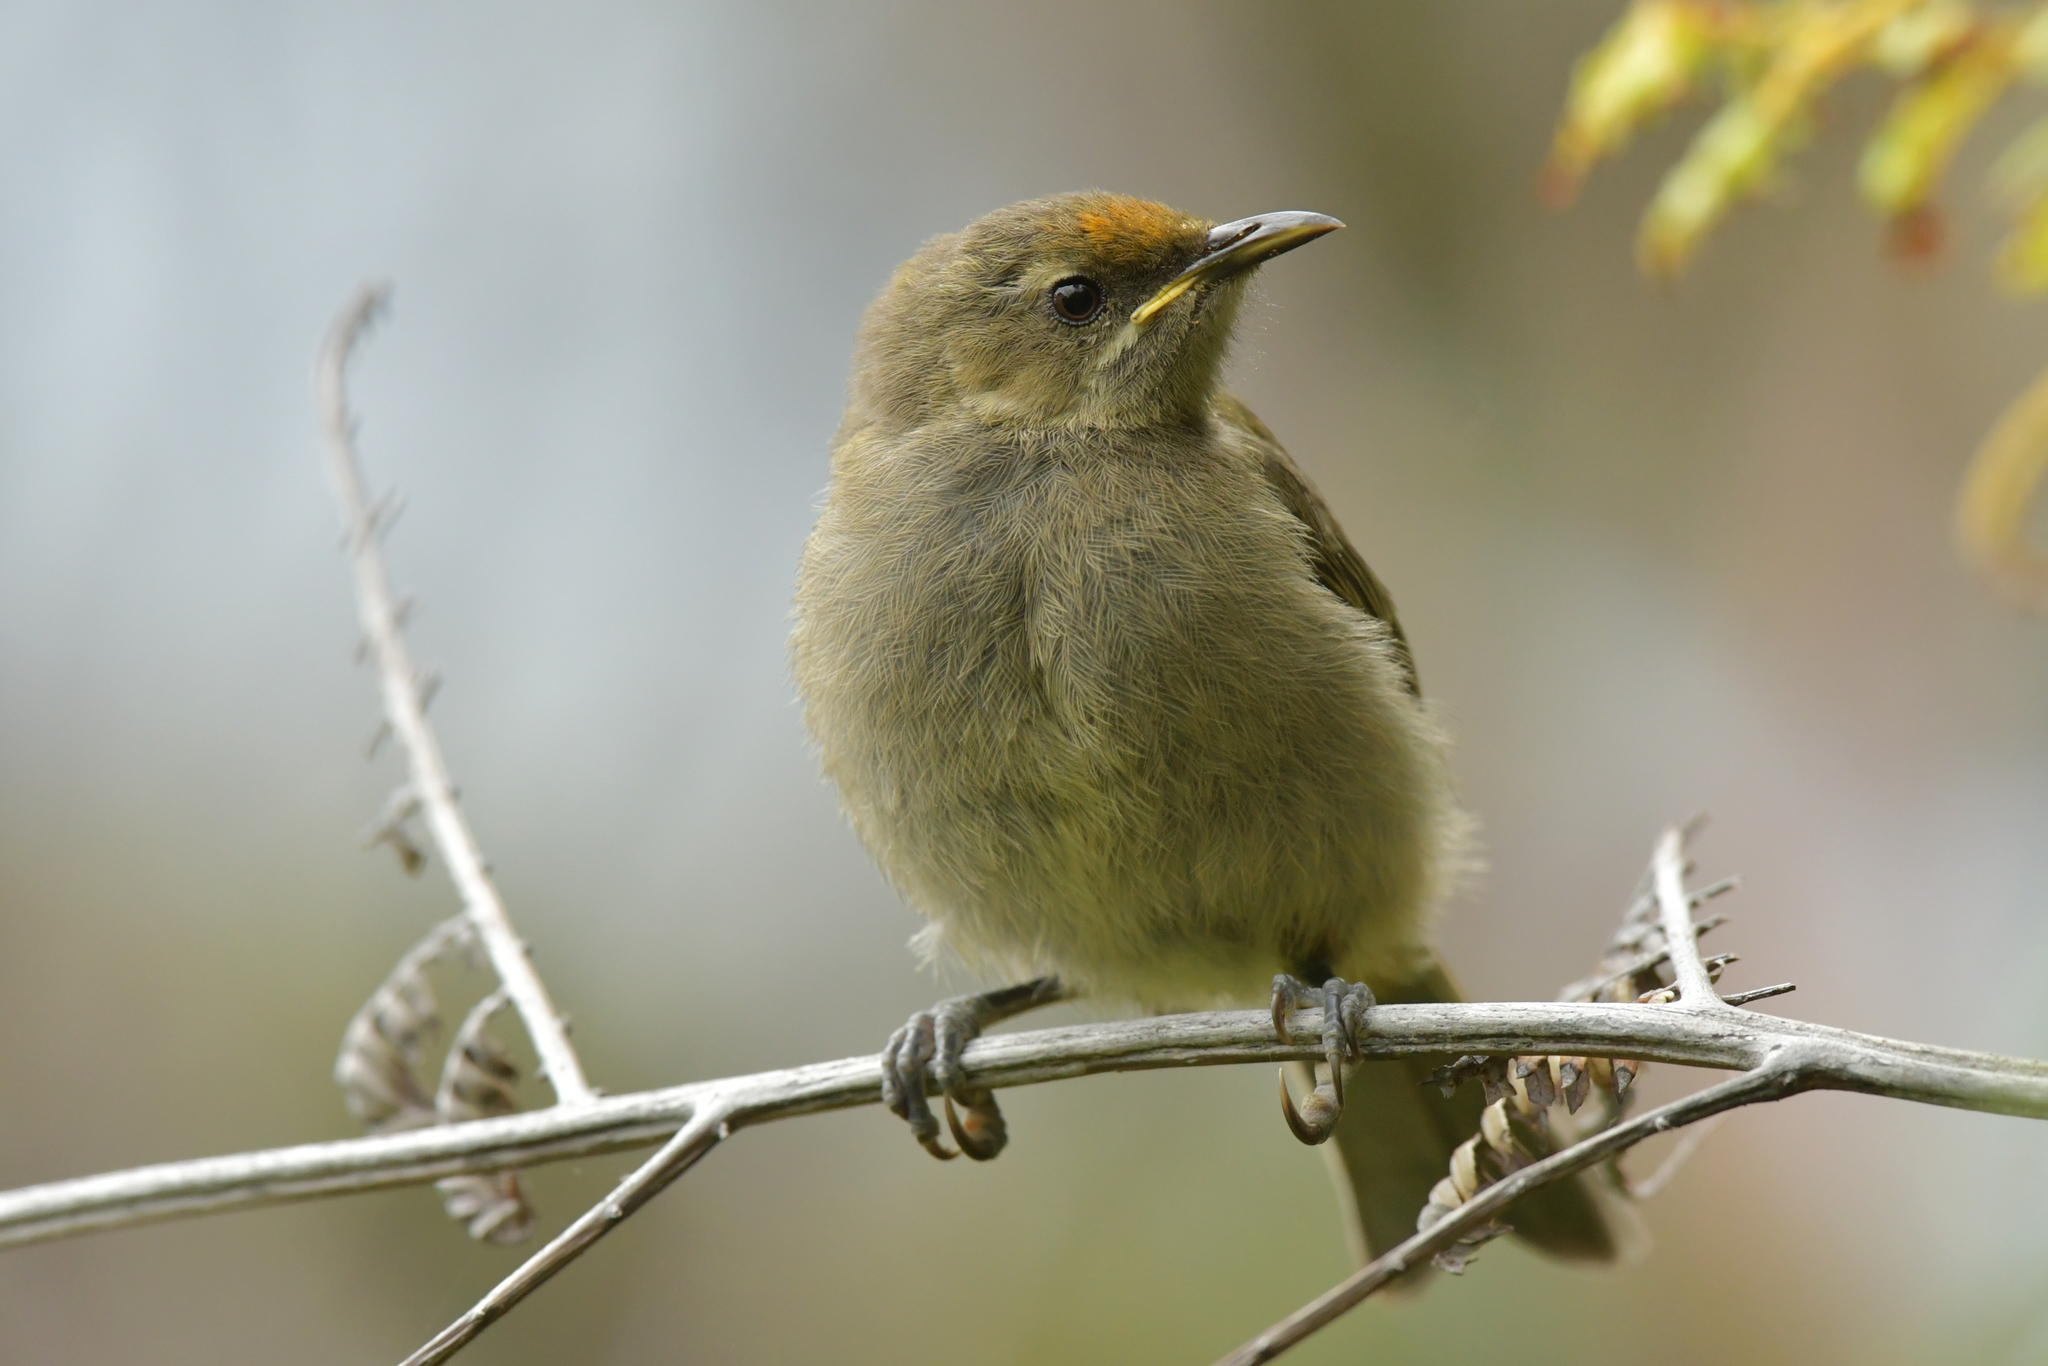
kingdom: Animalia
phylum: Chordata
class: Aves
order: Passeriformes
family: Meliphagidae
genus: Anthornis
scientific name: Anthornis melanura
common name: New zealand bellbird
